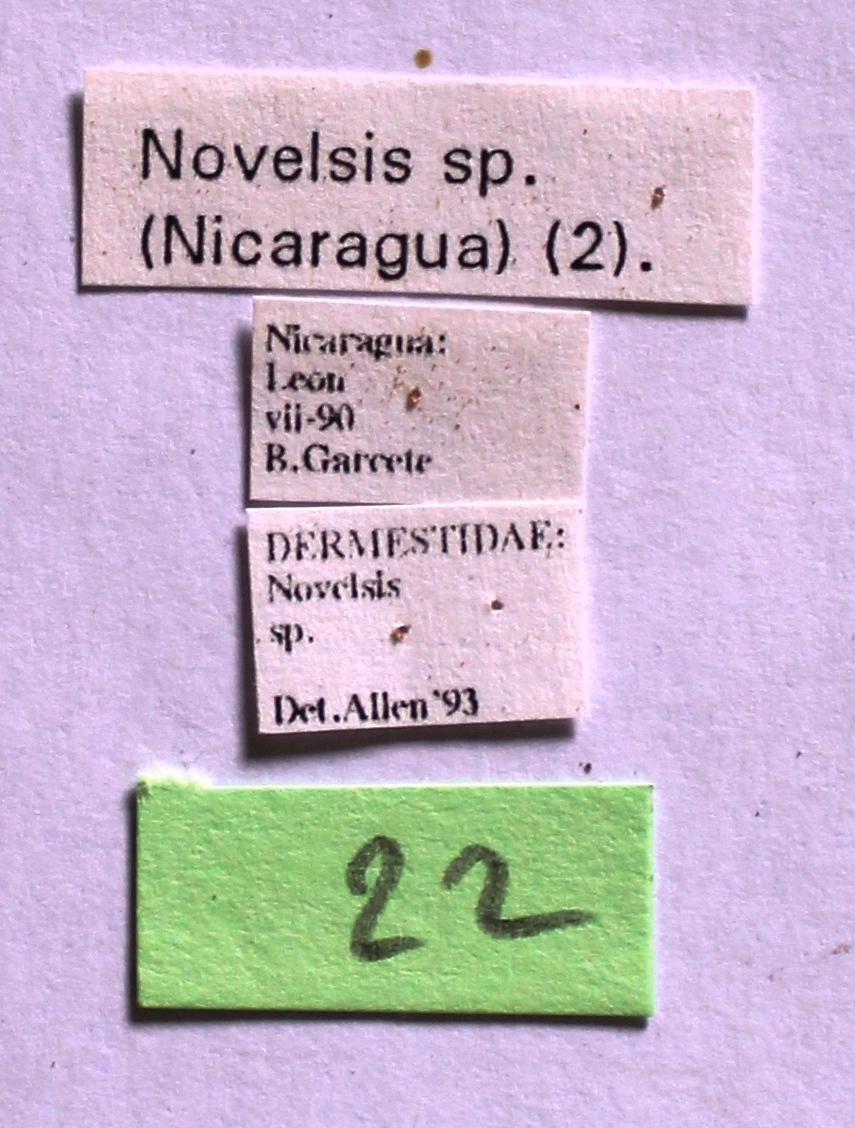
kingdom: Animalia
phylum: Arthropoda
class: Insecta
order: Coleoptera
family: Dermestidae
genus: Attagenus
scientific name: Attagenus fasciatus
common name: Wardrobe beetle
